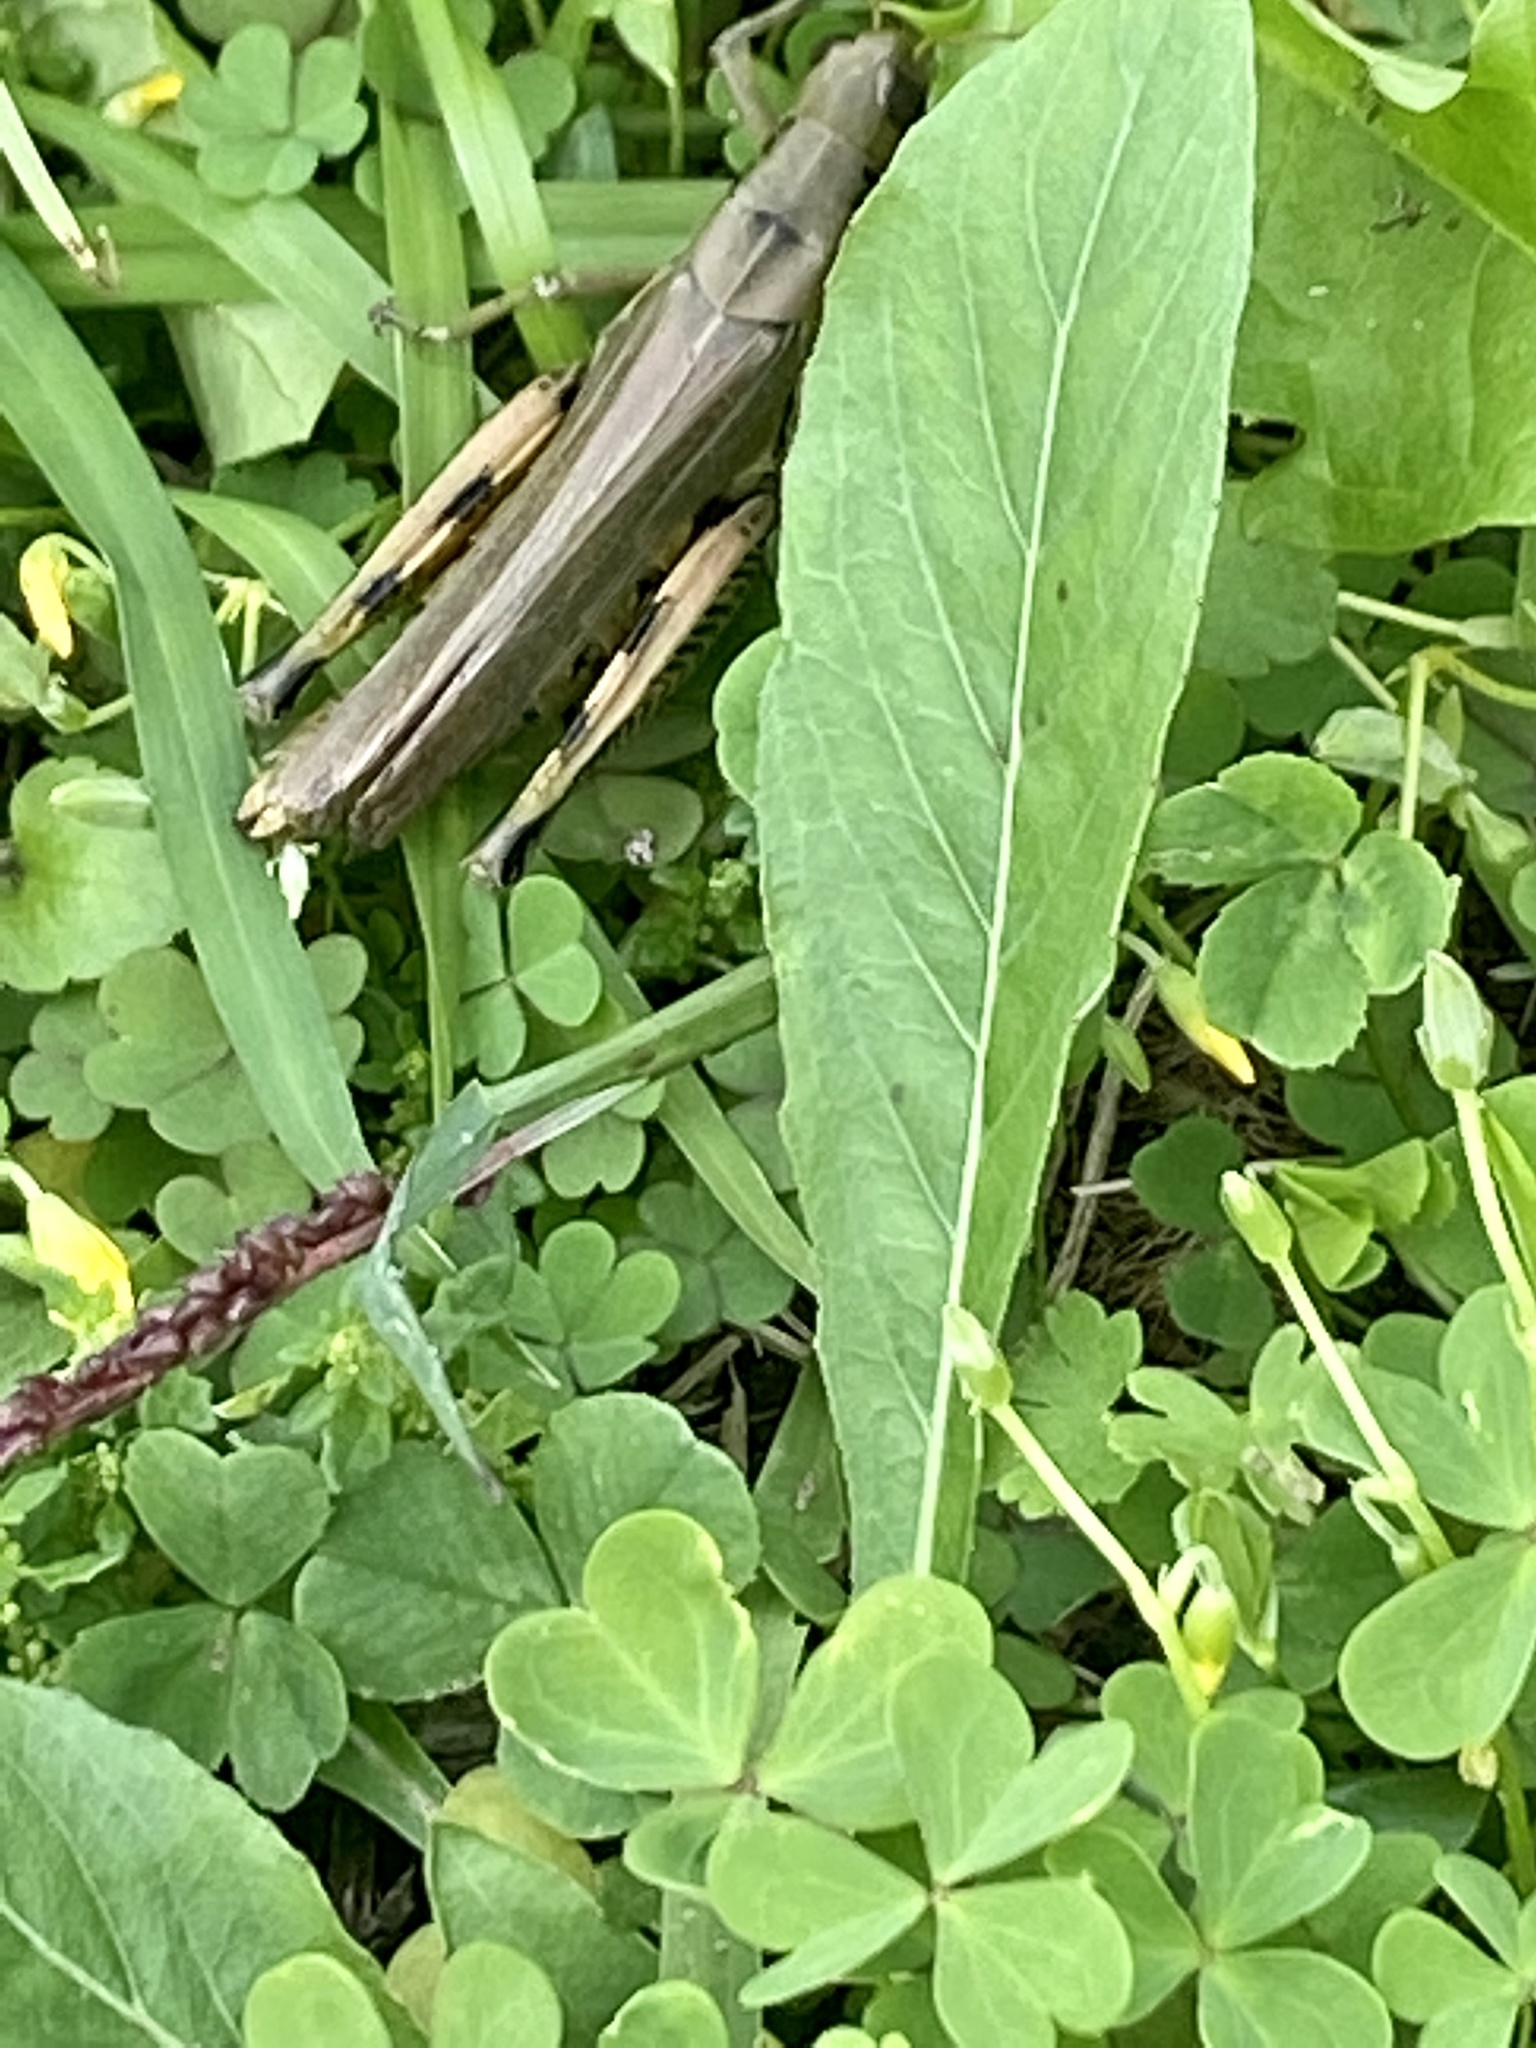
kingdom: Animalia
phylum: Arthropoda
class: Insecta
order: Orthoptera
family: Acrididae
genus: Melanoplus
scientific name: Melanoplus differentialis
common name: Differential grasshopper
